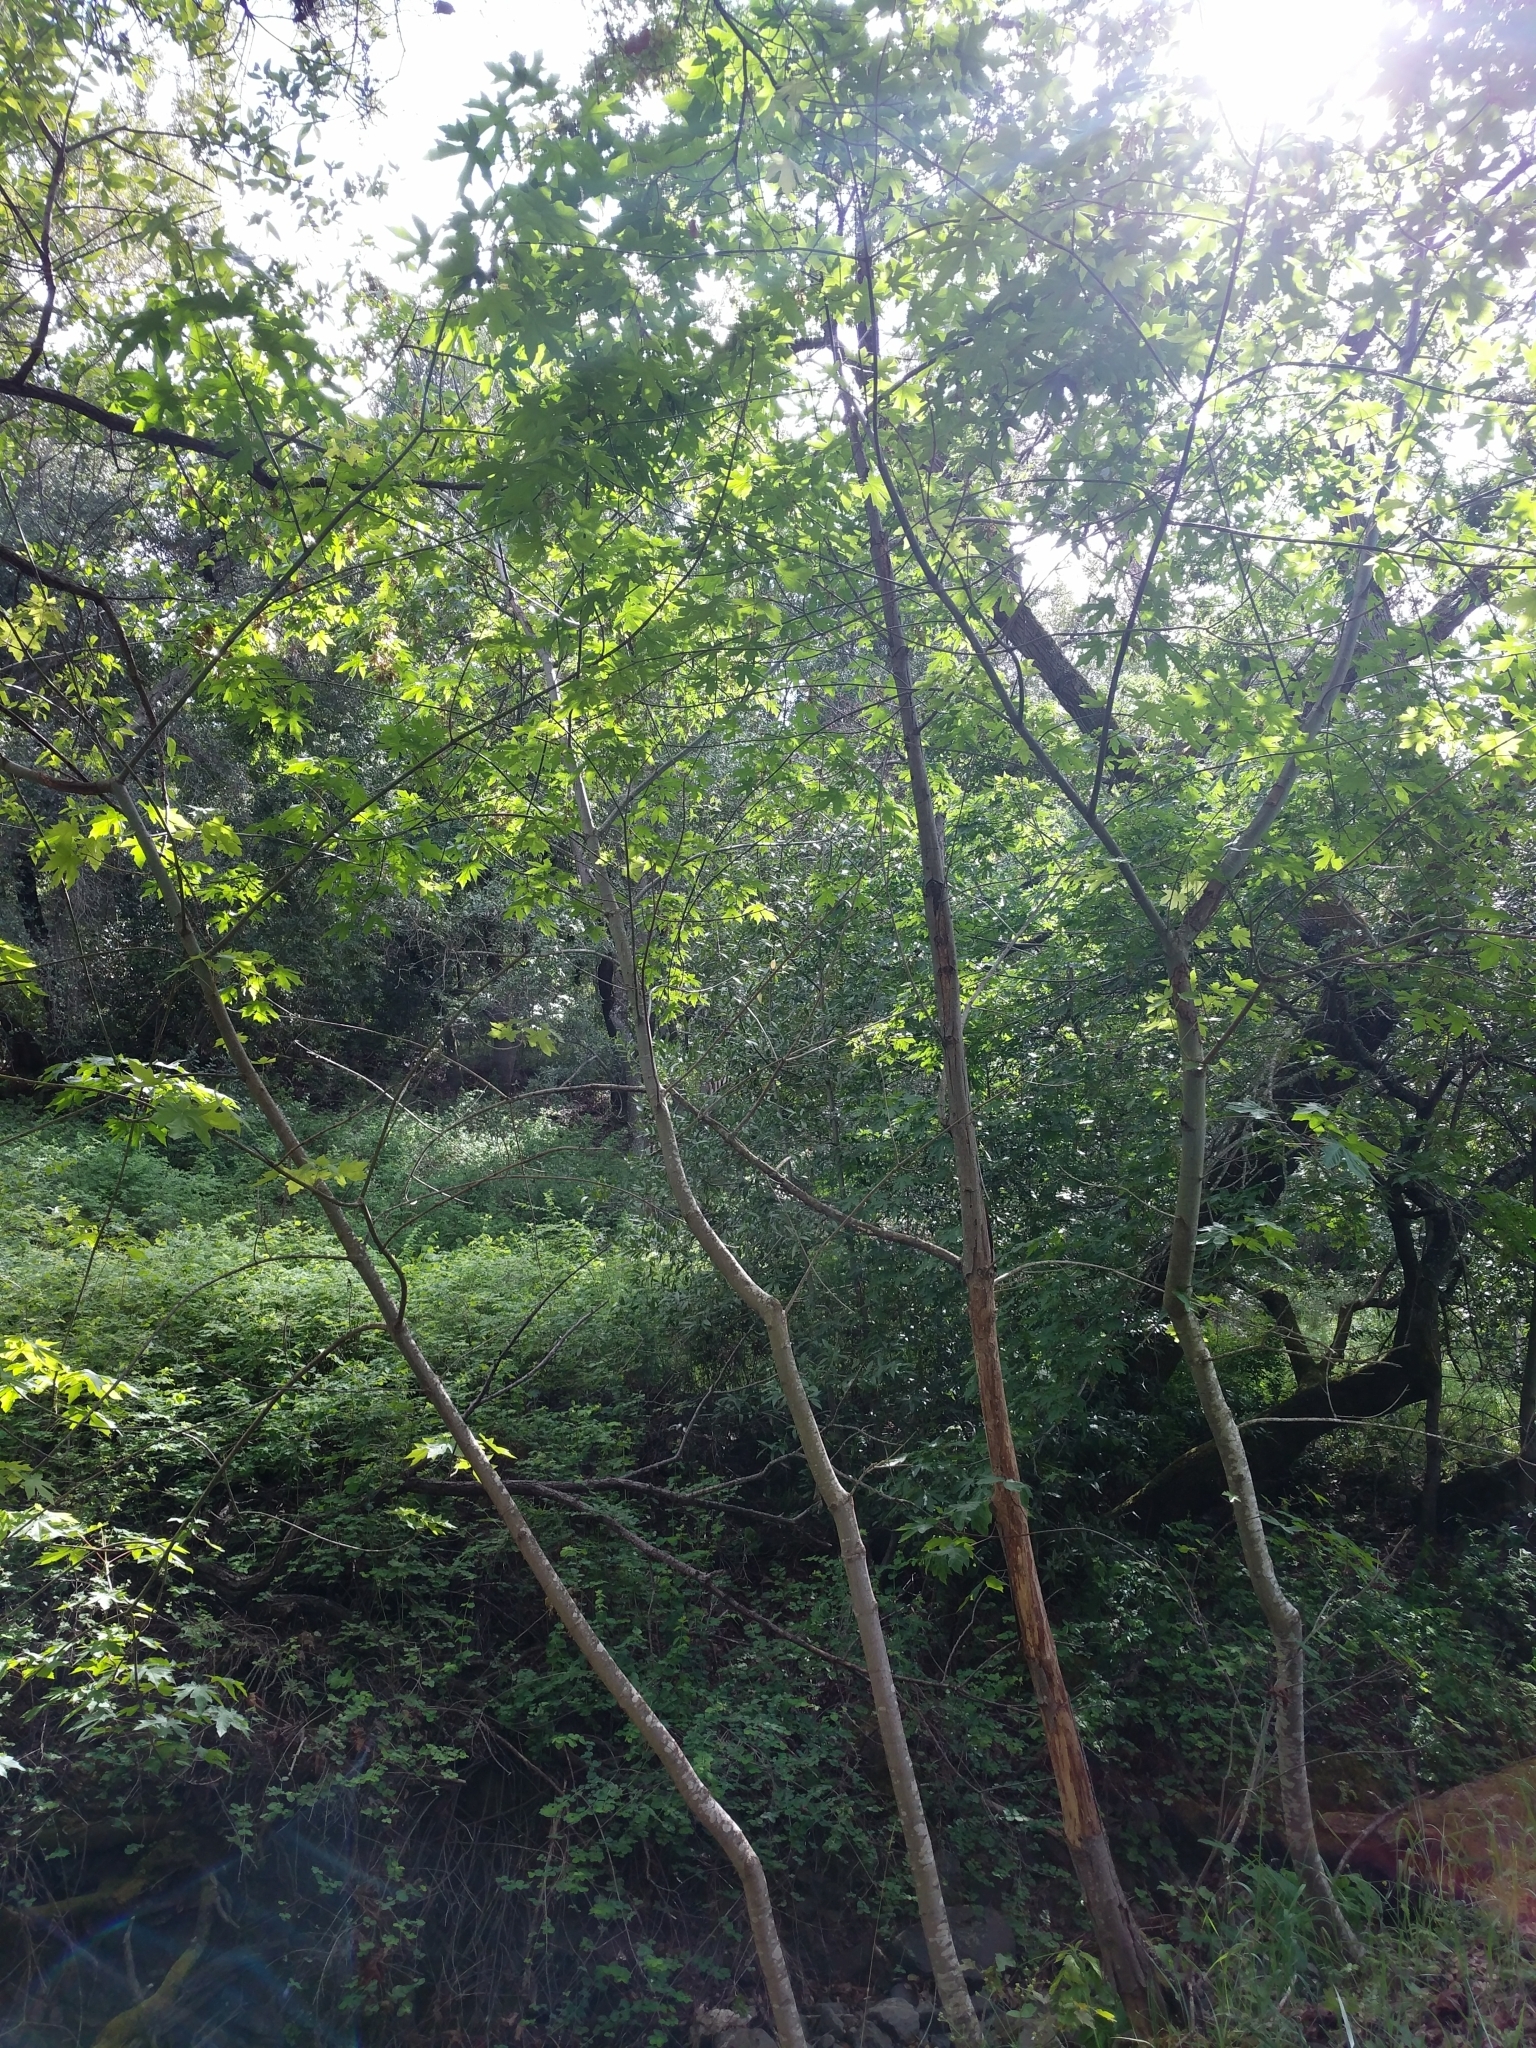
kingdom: Plantae
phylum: Tracheophyta
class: Magnoliopsida
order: Sapindales
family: Sapindaceae
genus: Acer
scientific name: Acer macrophyllum
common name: Oregon maple
